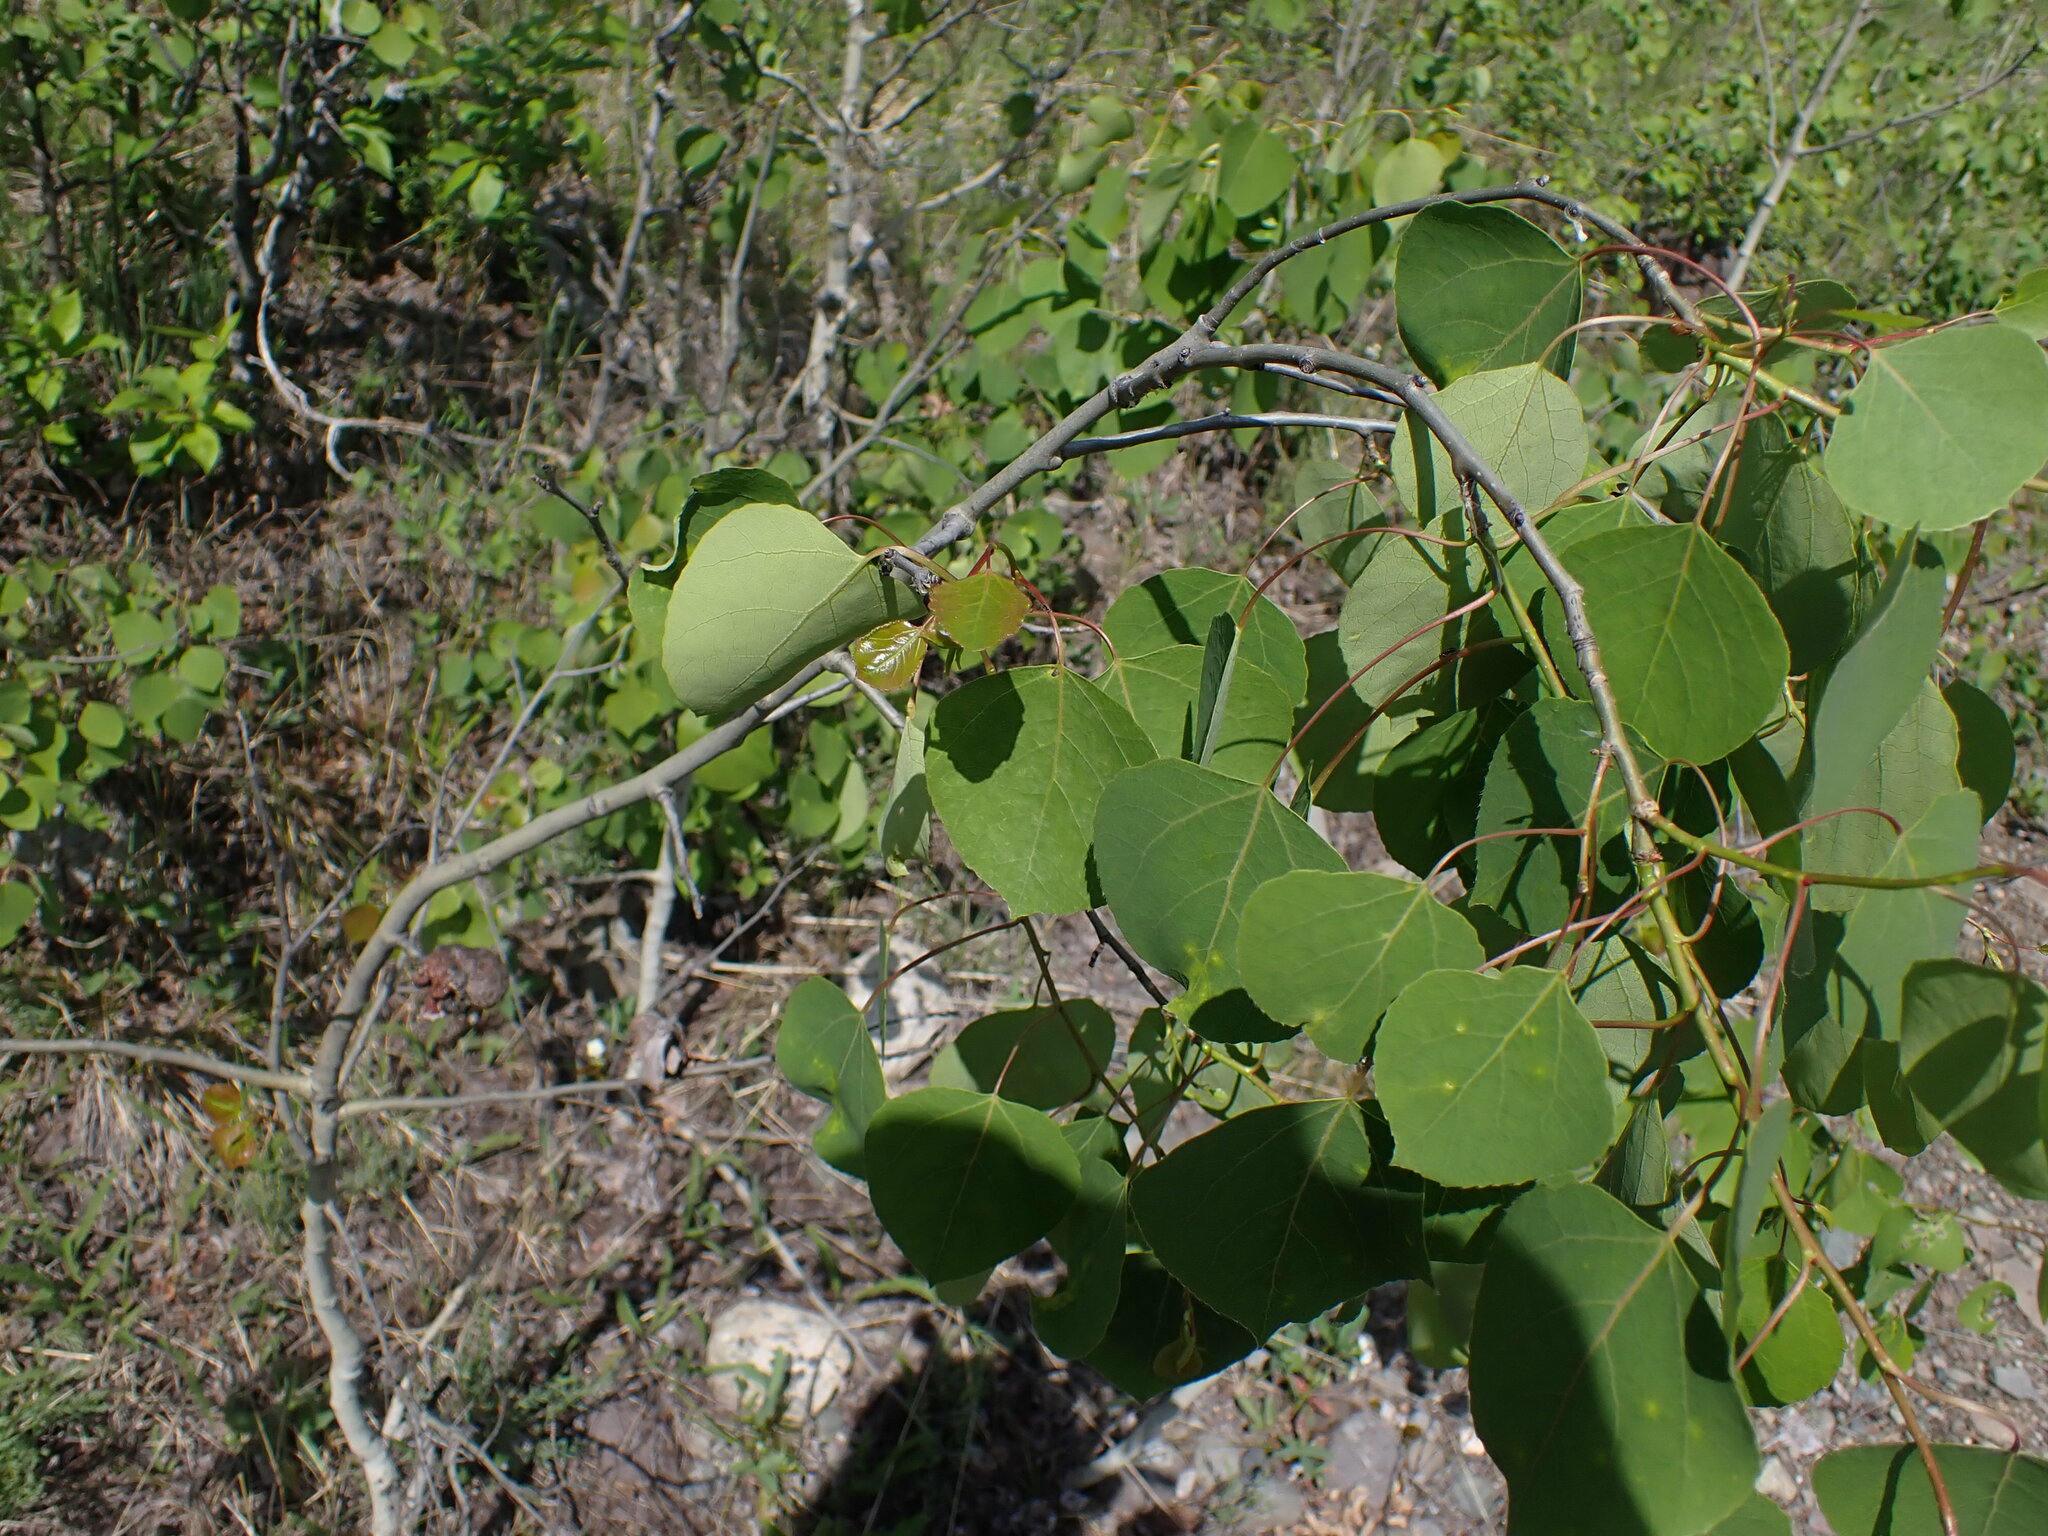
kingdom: Plantae
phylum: Tracheophyta
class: Magnoliopsida
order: Malpighiales
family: Salicaceae
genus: Populus
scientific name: Populus tremuloides
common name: Quaking aspen
